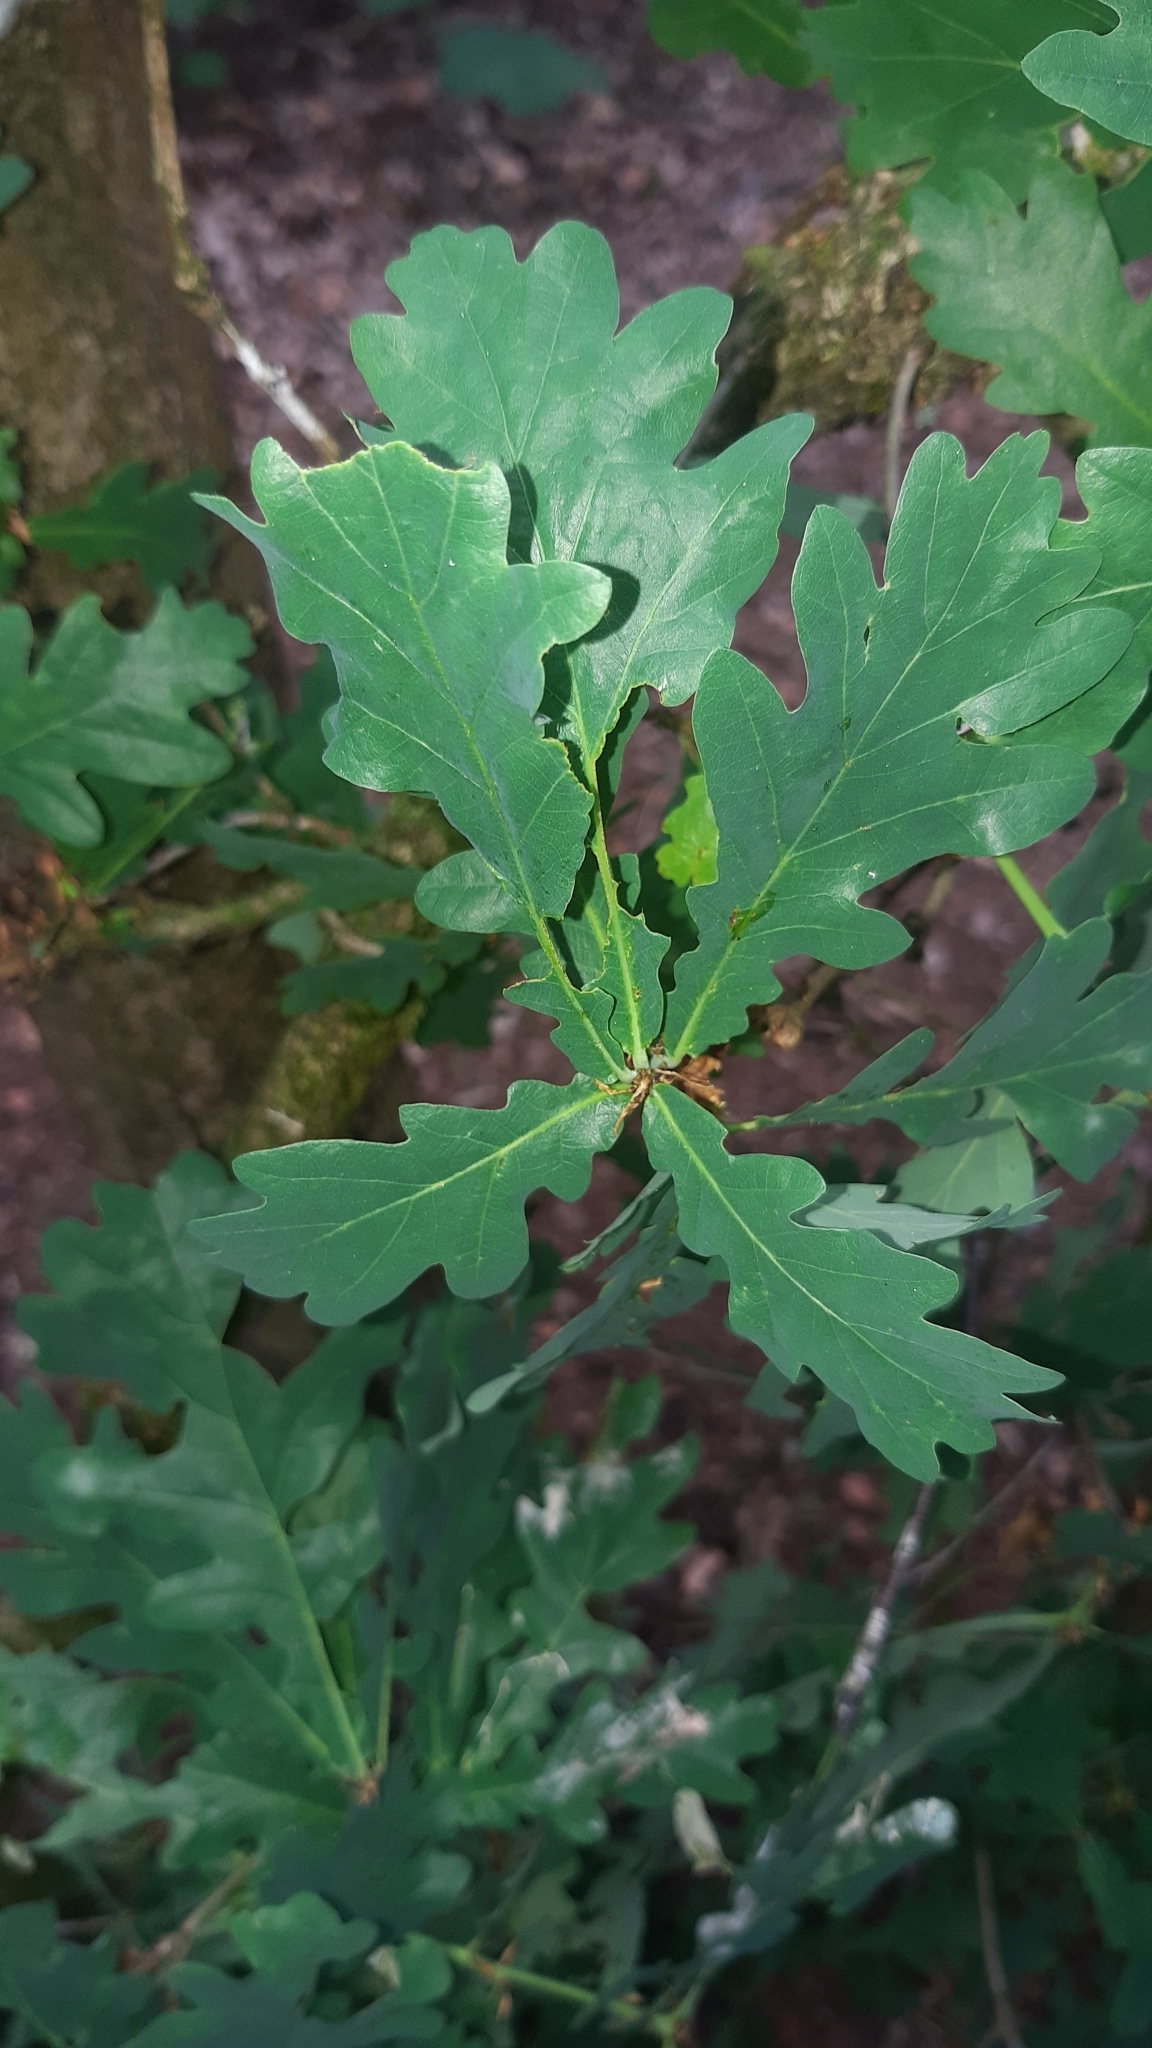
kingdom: Plantae
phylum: Tracheophyta
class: Magnoliopsida
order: Fagales
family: Fagaceae
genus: Quercus
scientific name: Quercus robur
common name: Pedunculate oak
